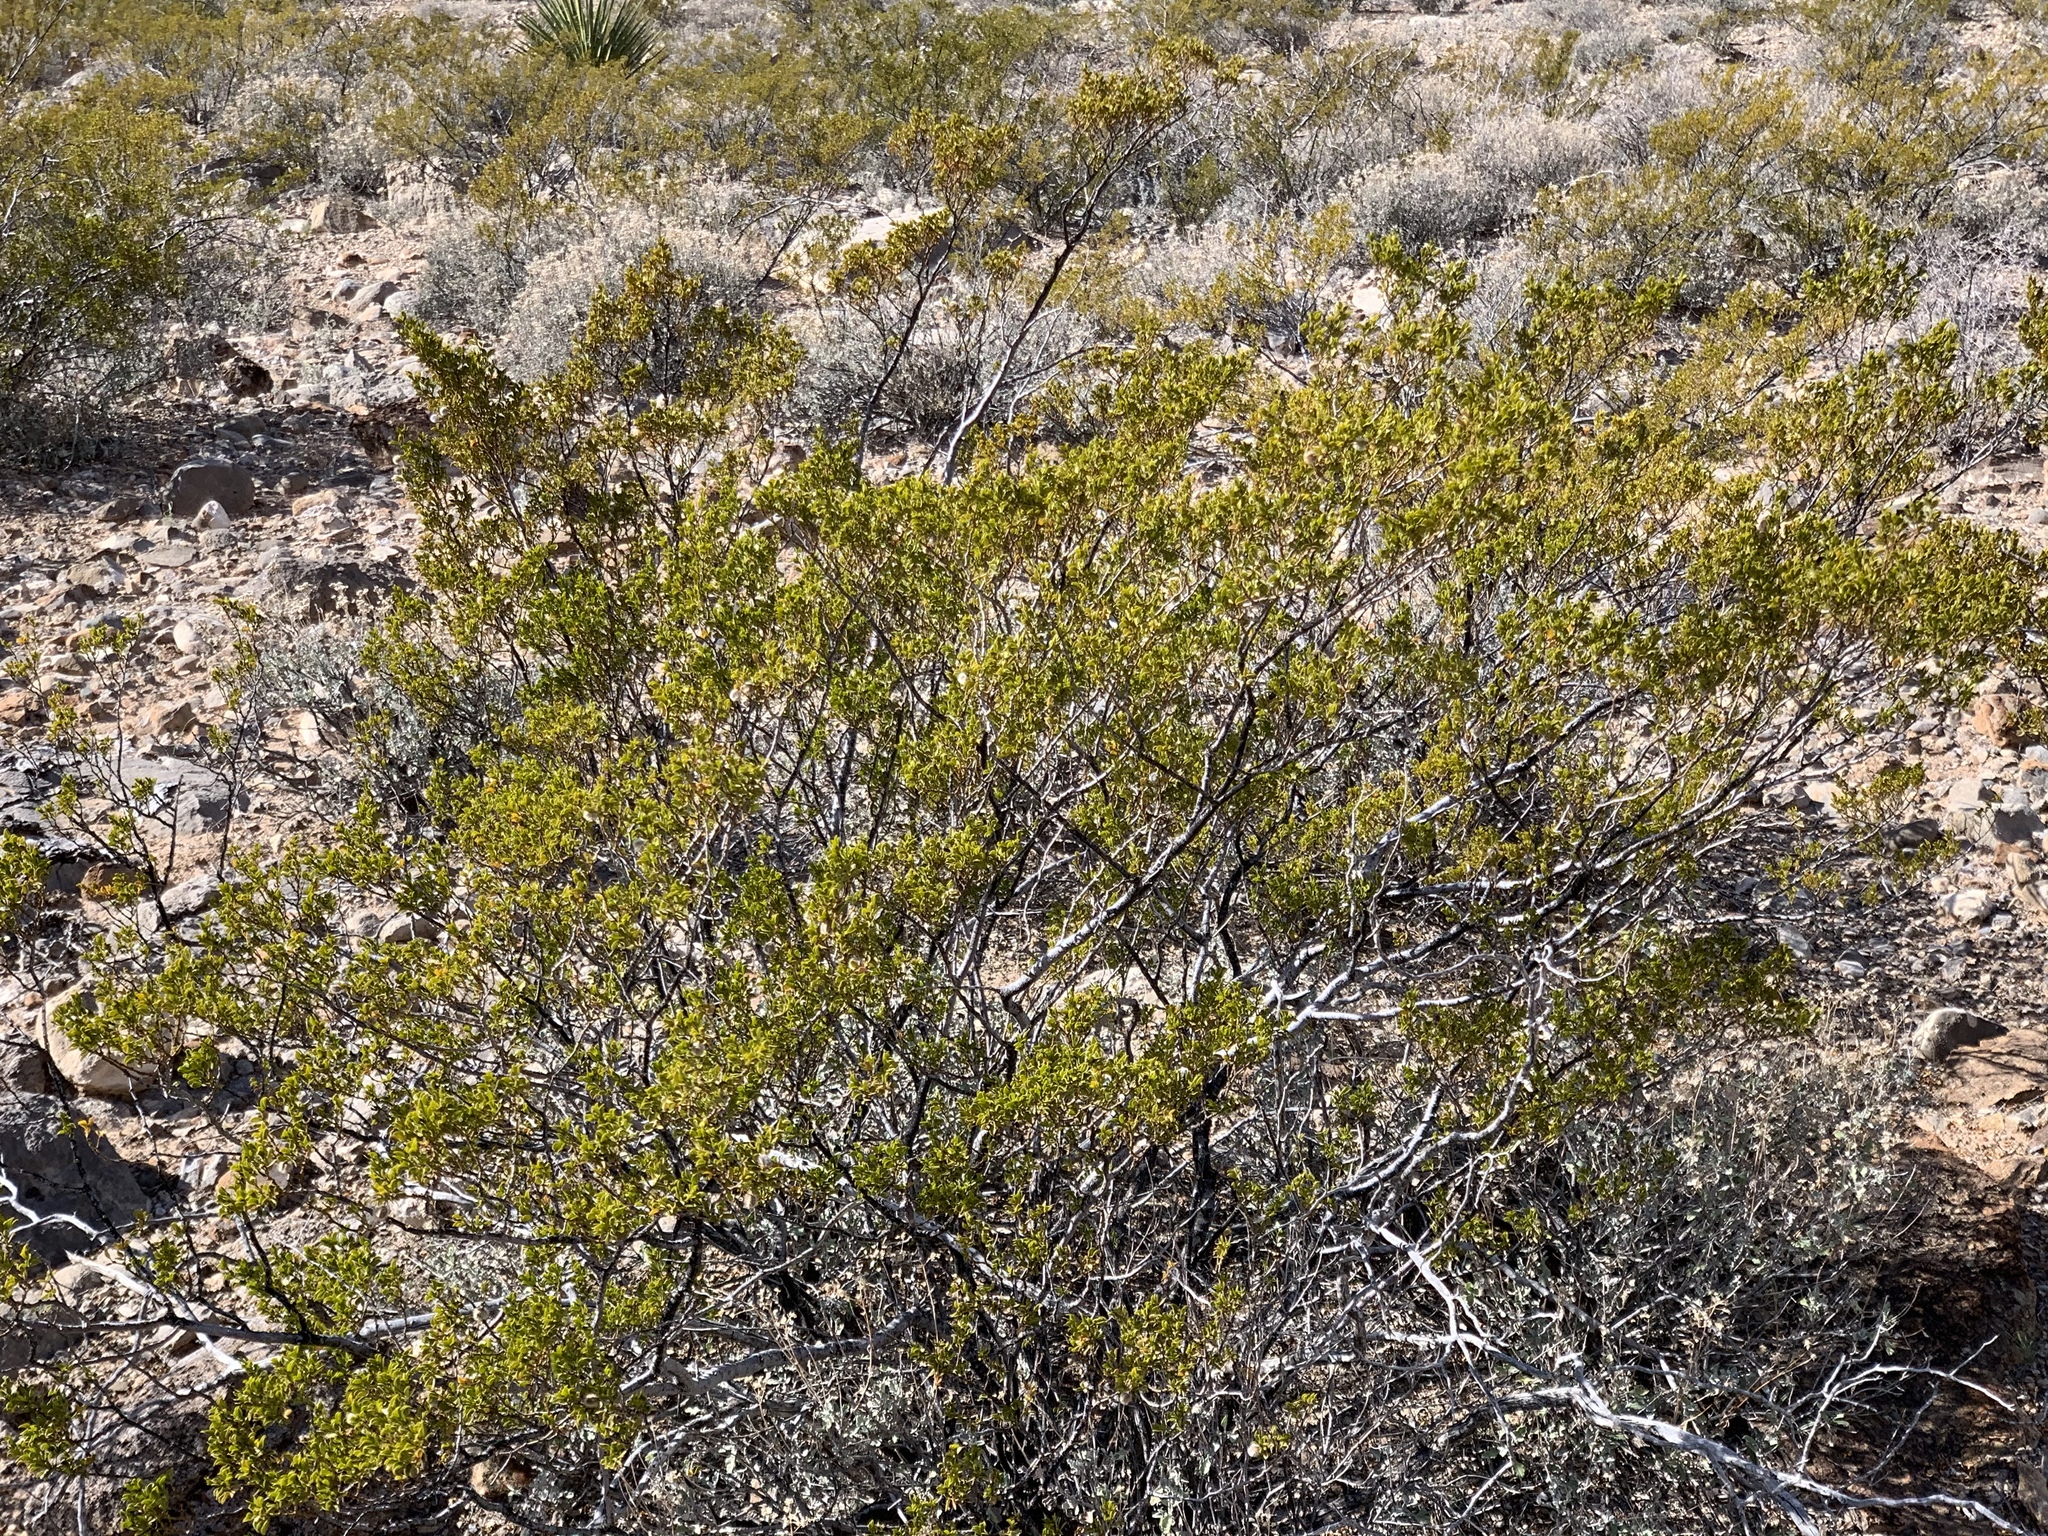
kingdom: Plantae
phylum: Tracheophyta
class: Magnoliopsida
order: Zygophyllales
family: Zygophyllaceae
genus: Larrea
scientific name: Larrea tridentata
